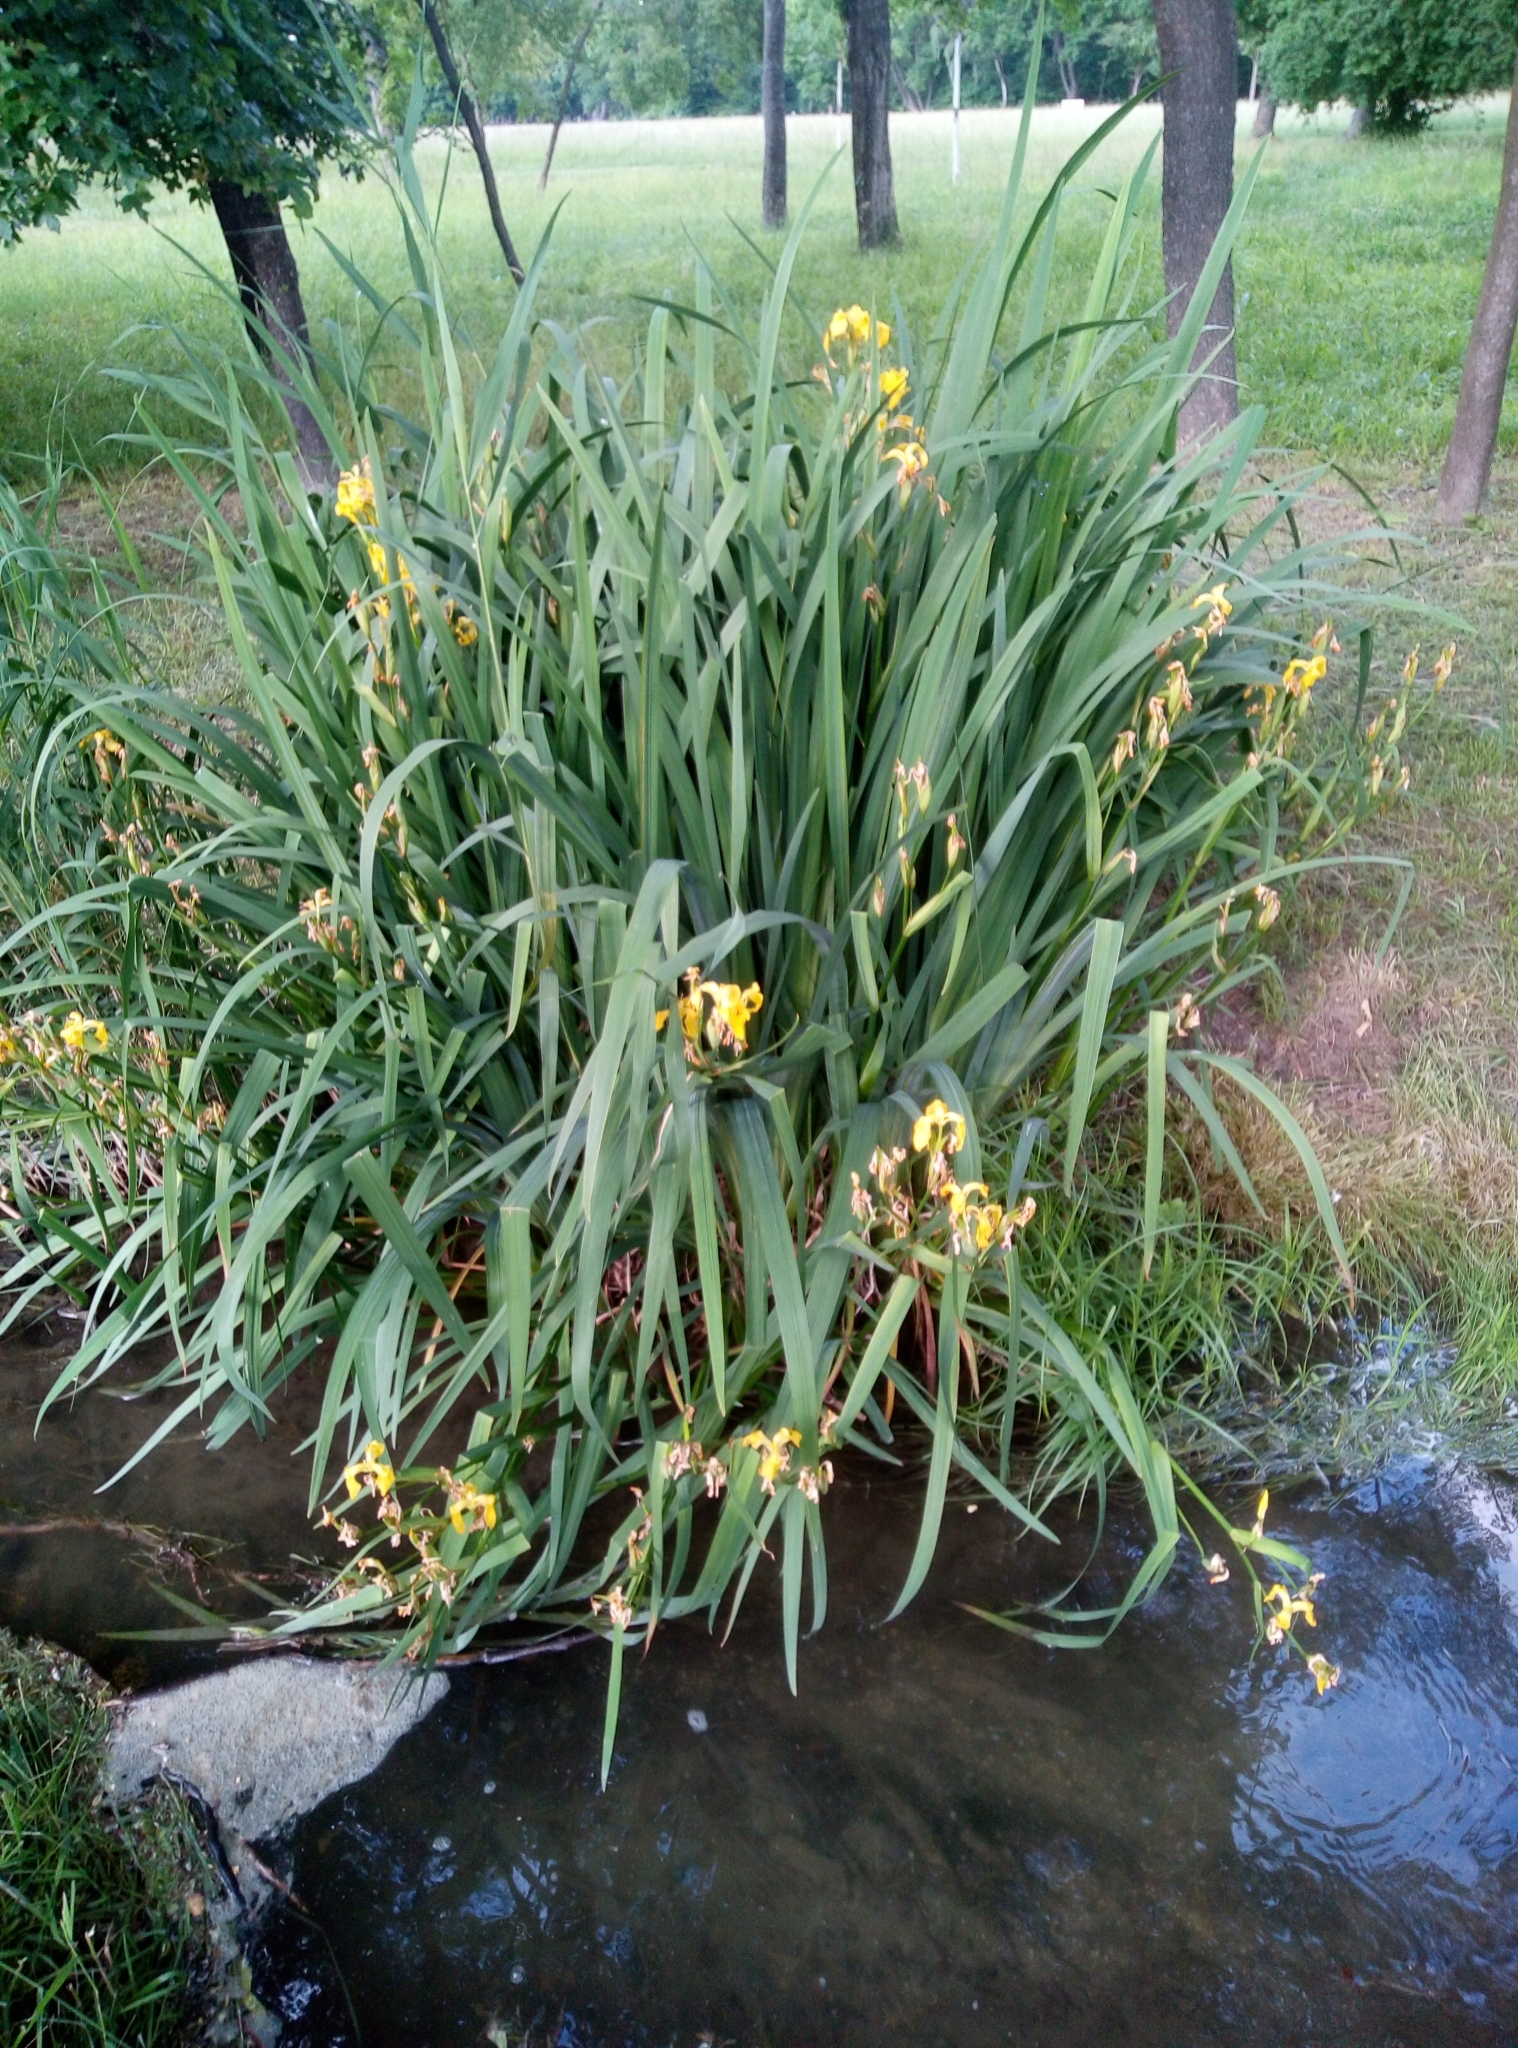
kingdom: Plantae
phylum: Tracheophyta
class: Liliopsida
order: Asparagales
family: Iridaceae
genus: Iris
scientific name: Iris pseudacorus
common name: Yellow flag
